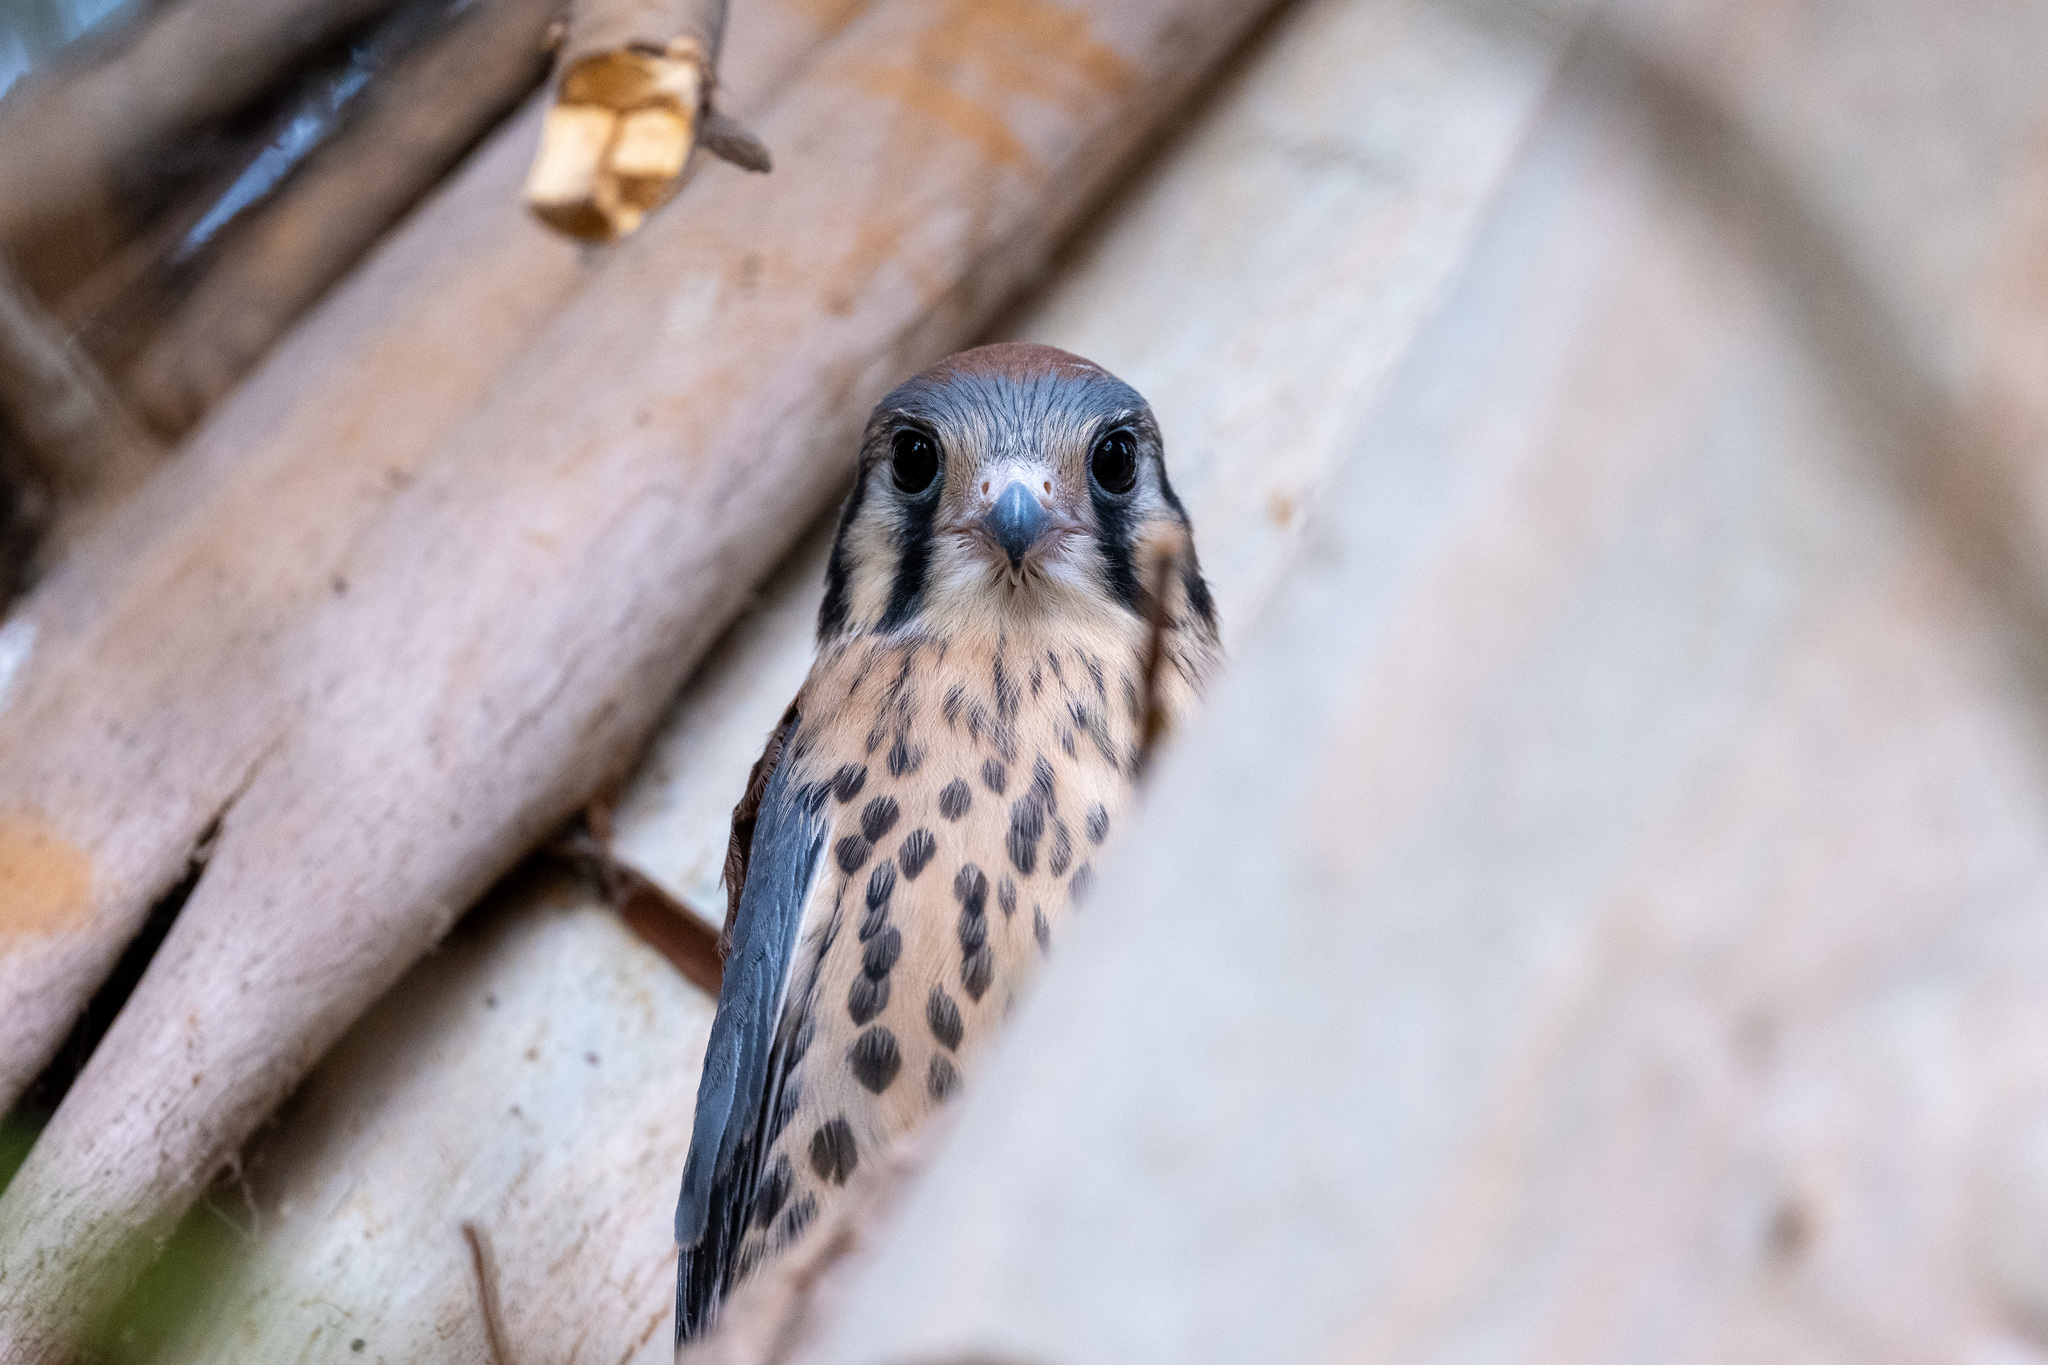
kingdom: Animalia
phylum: Chordata
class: Aves
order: Falconiformes
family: Falconidae
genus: Falco
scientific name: Falco sparverius
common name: American kestrel
